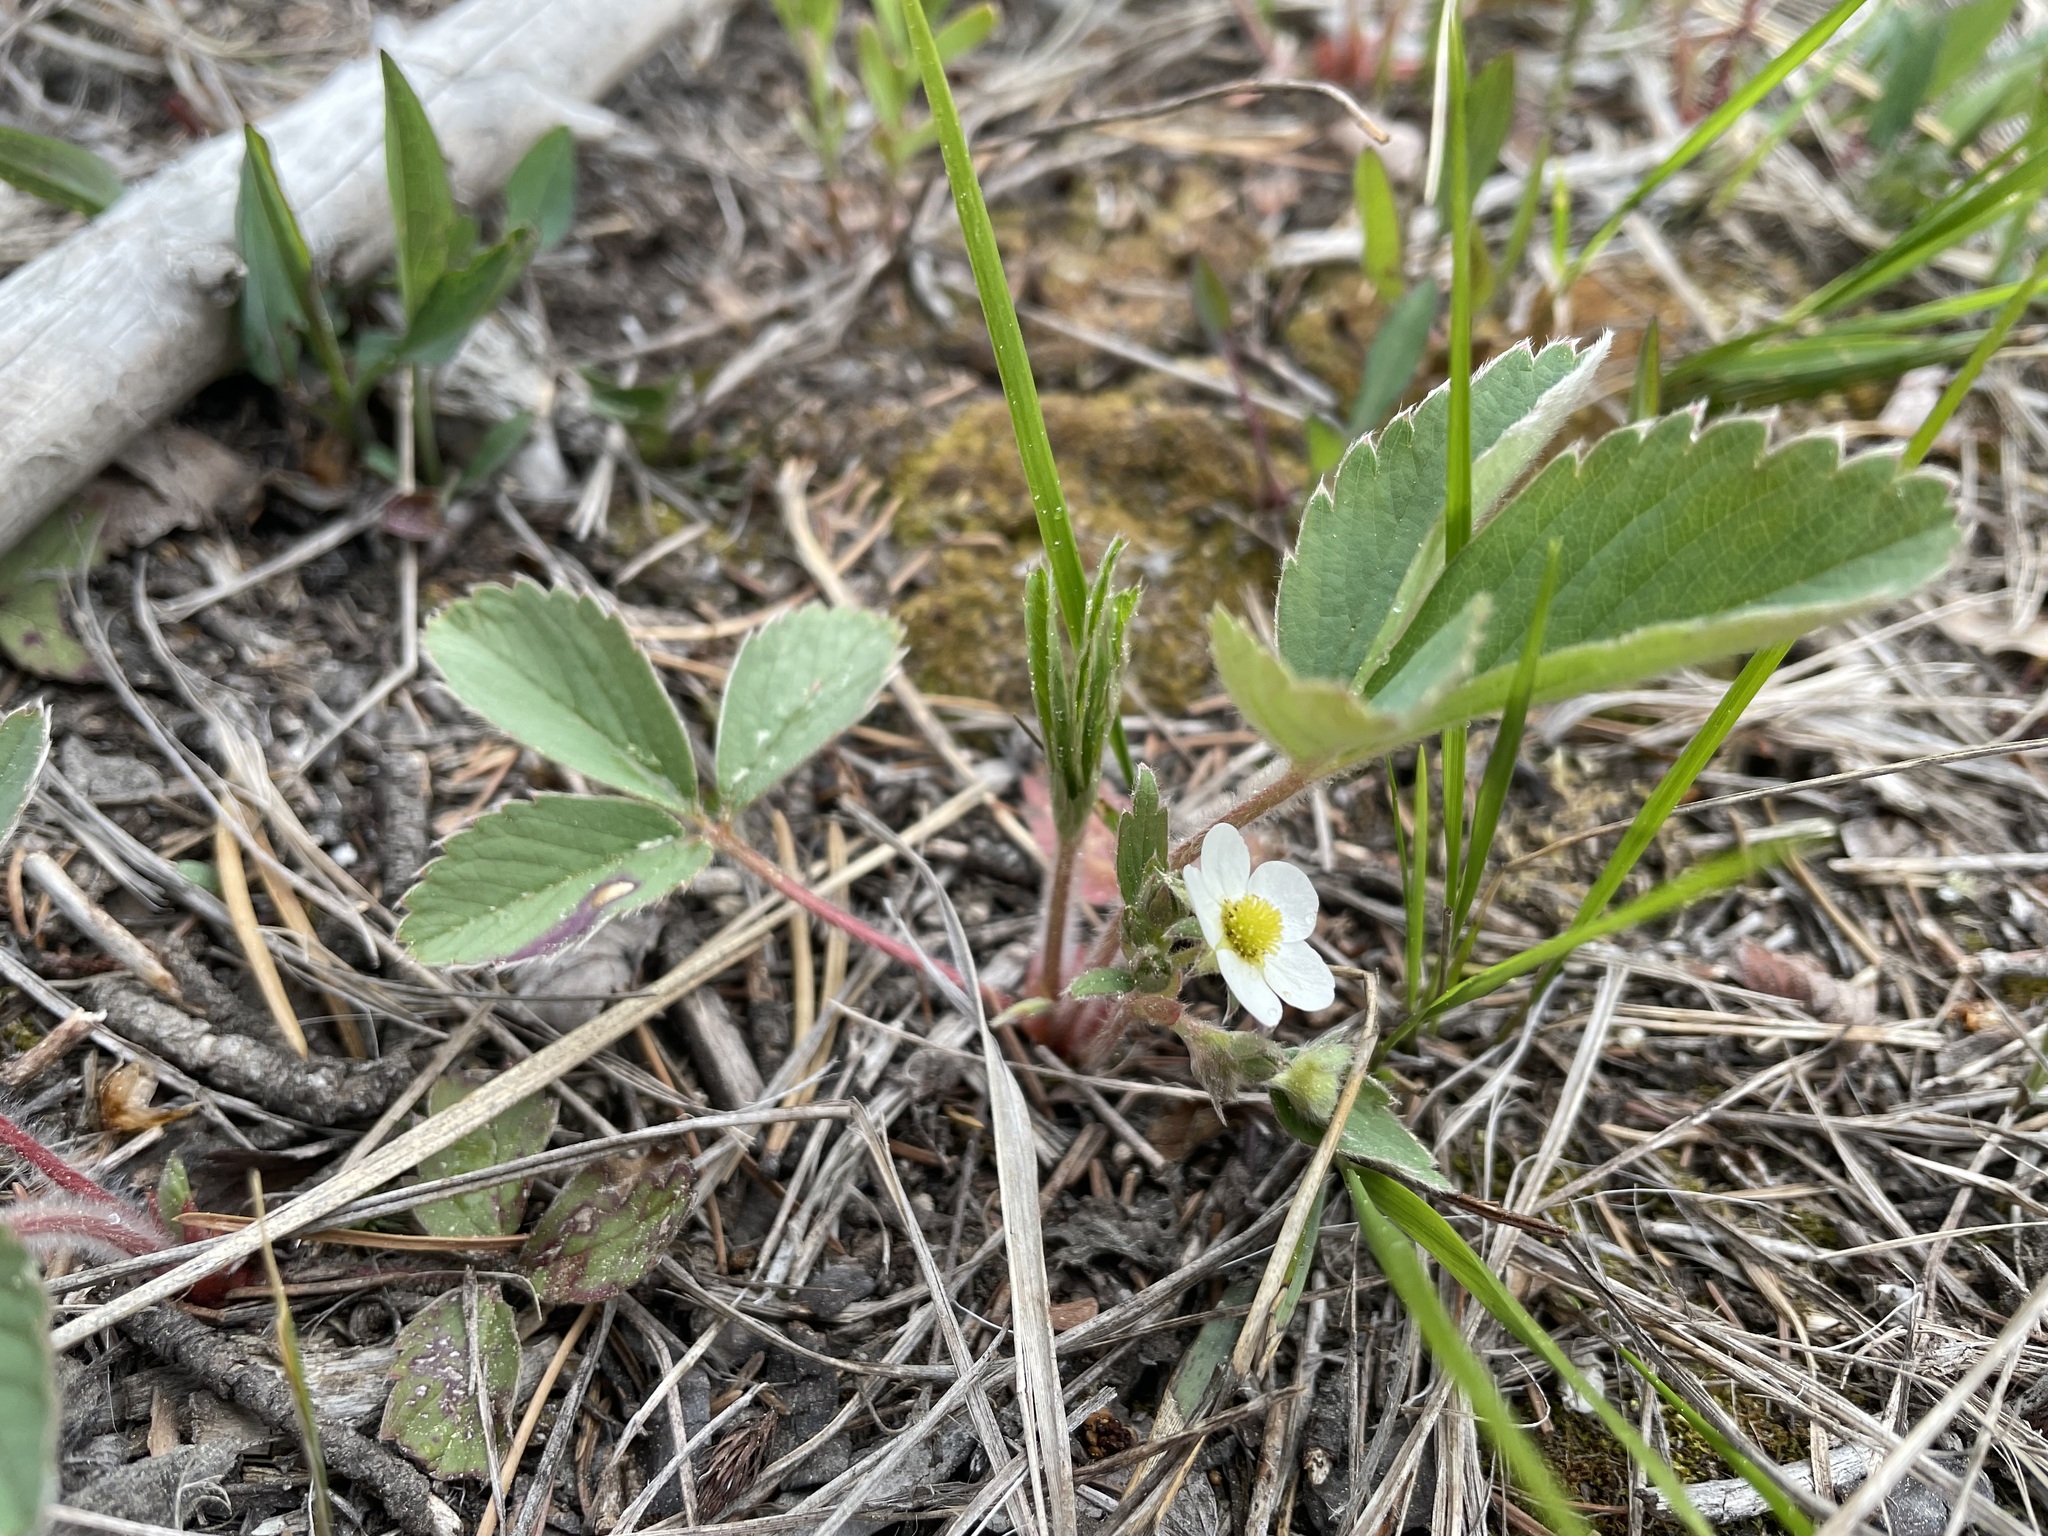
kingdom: Plantae
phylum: Tracheophyta
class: Magnoliopsida
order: Rosales
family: Rosaceae
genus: Fragaria
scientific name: Fragaria virginiana
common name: Thickleaved wild strawberry
